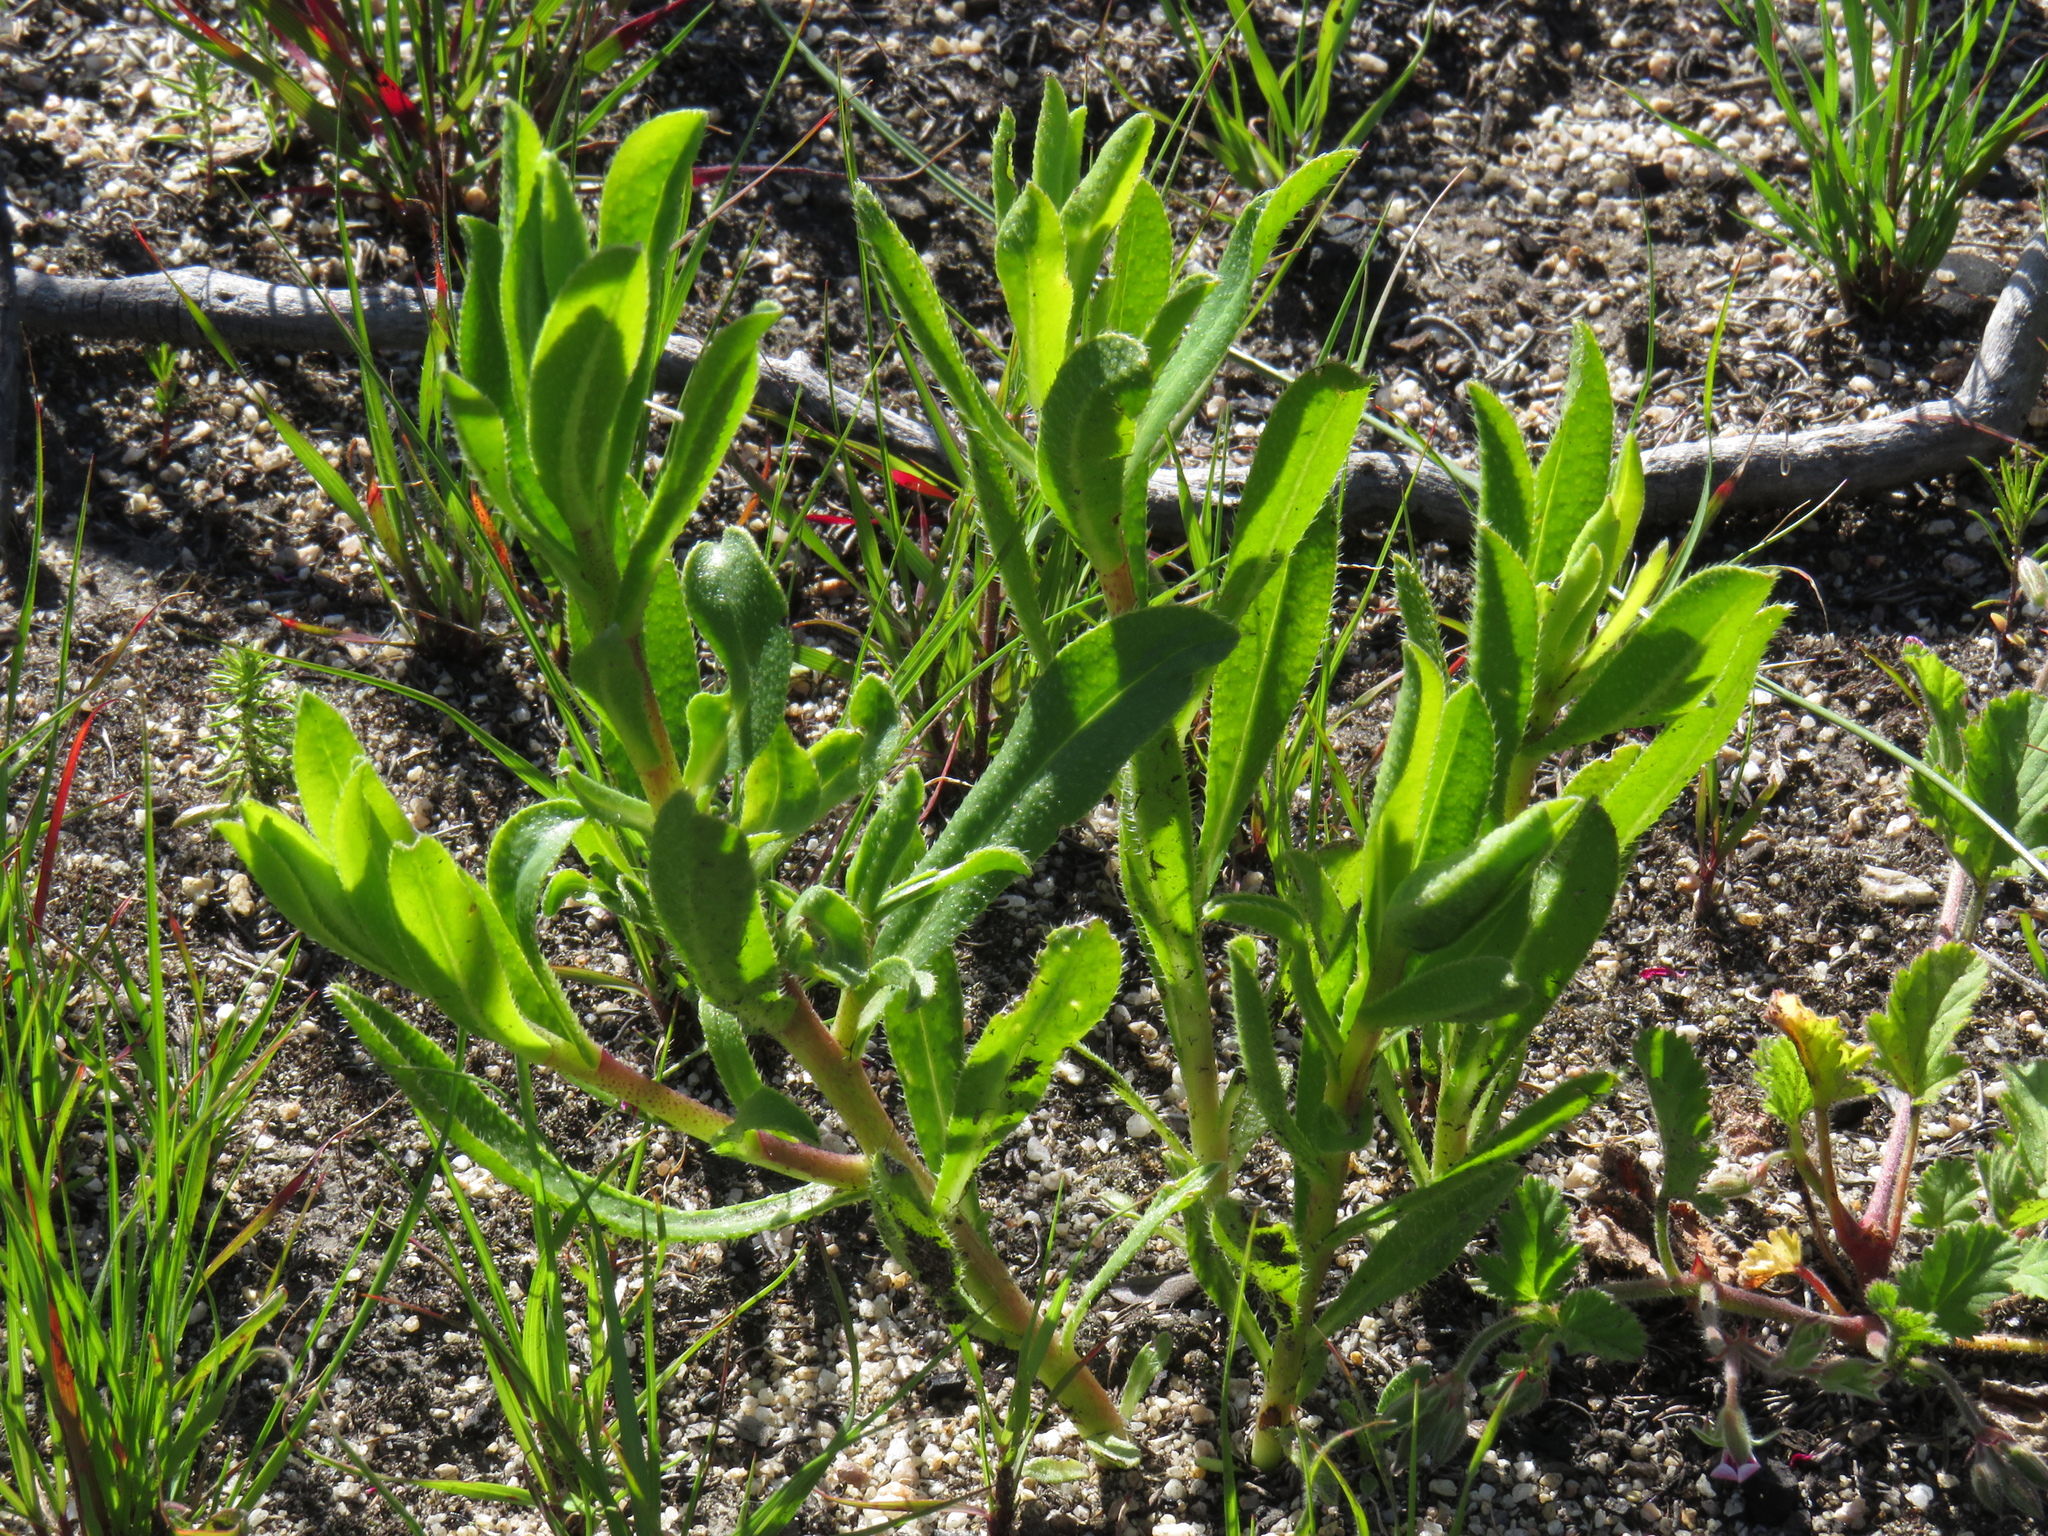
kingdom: Plantae
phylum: Tracheophyta
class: Magnoliopsida
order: Boraginales
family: Boraginaceae
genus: Lobostemon
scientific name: Lobostemon glaucophyllus
